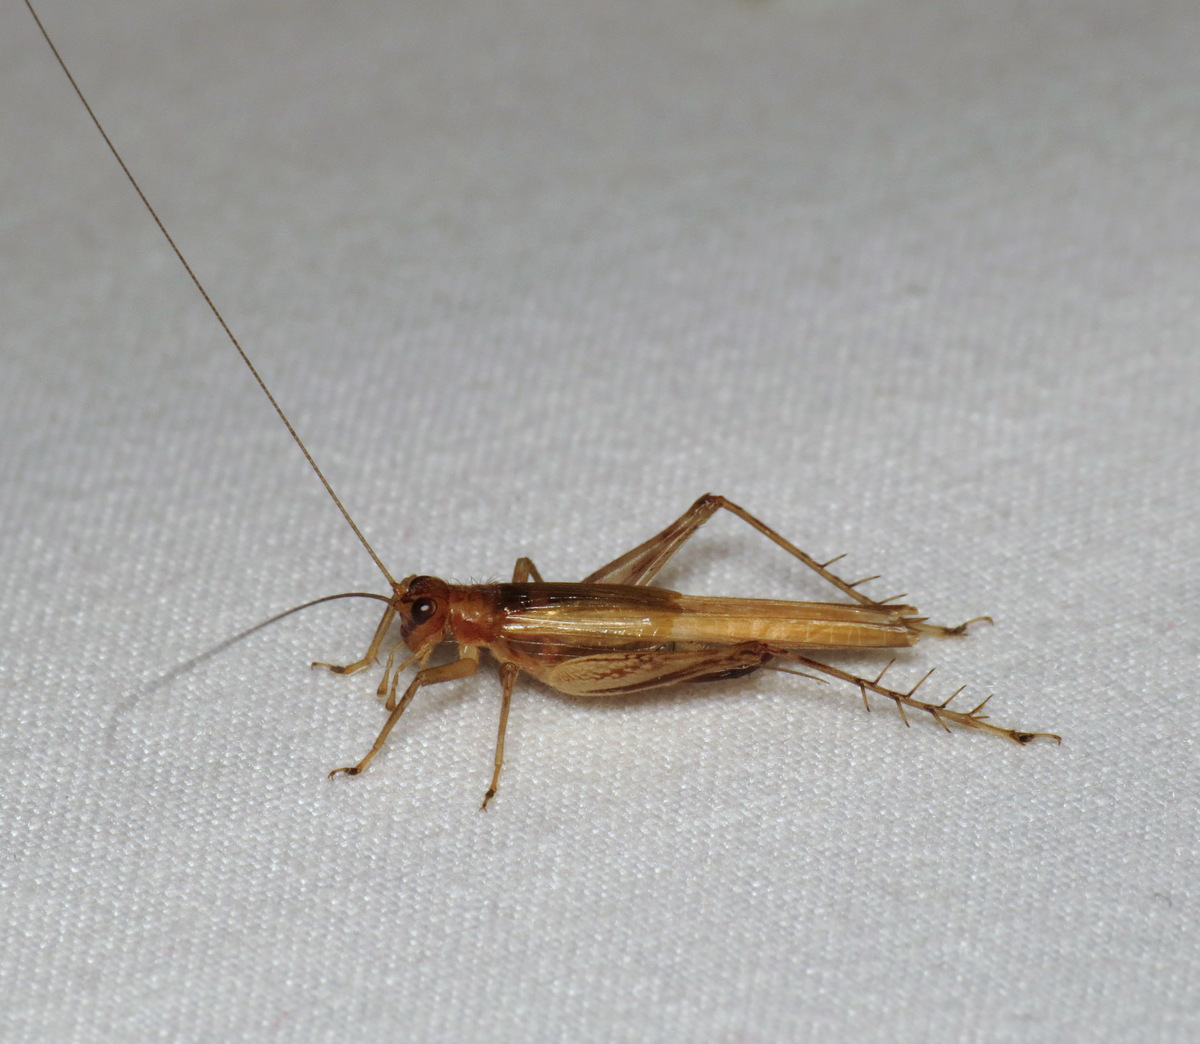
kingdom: Animalia
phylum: Arthropoda
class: Insecta
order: Orthoptera
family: Trigonidiidae
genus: Anaxipha
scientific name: Anaxipha exigua
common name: Say's bush cricket
